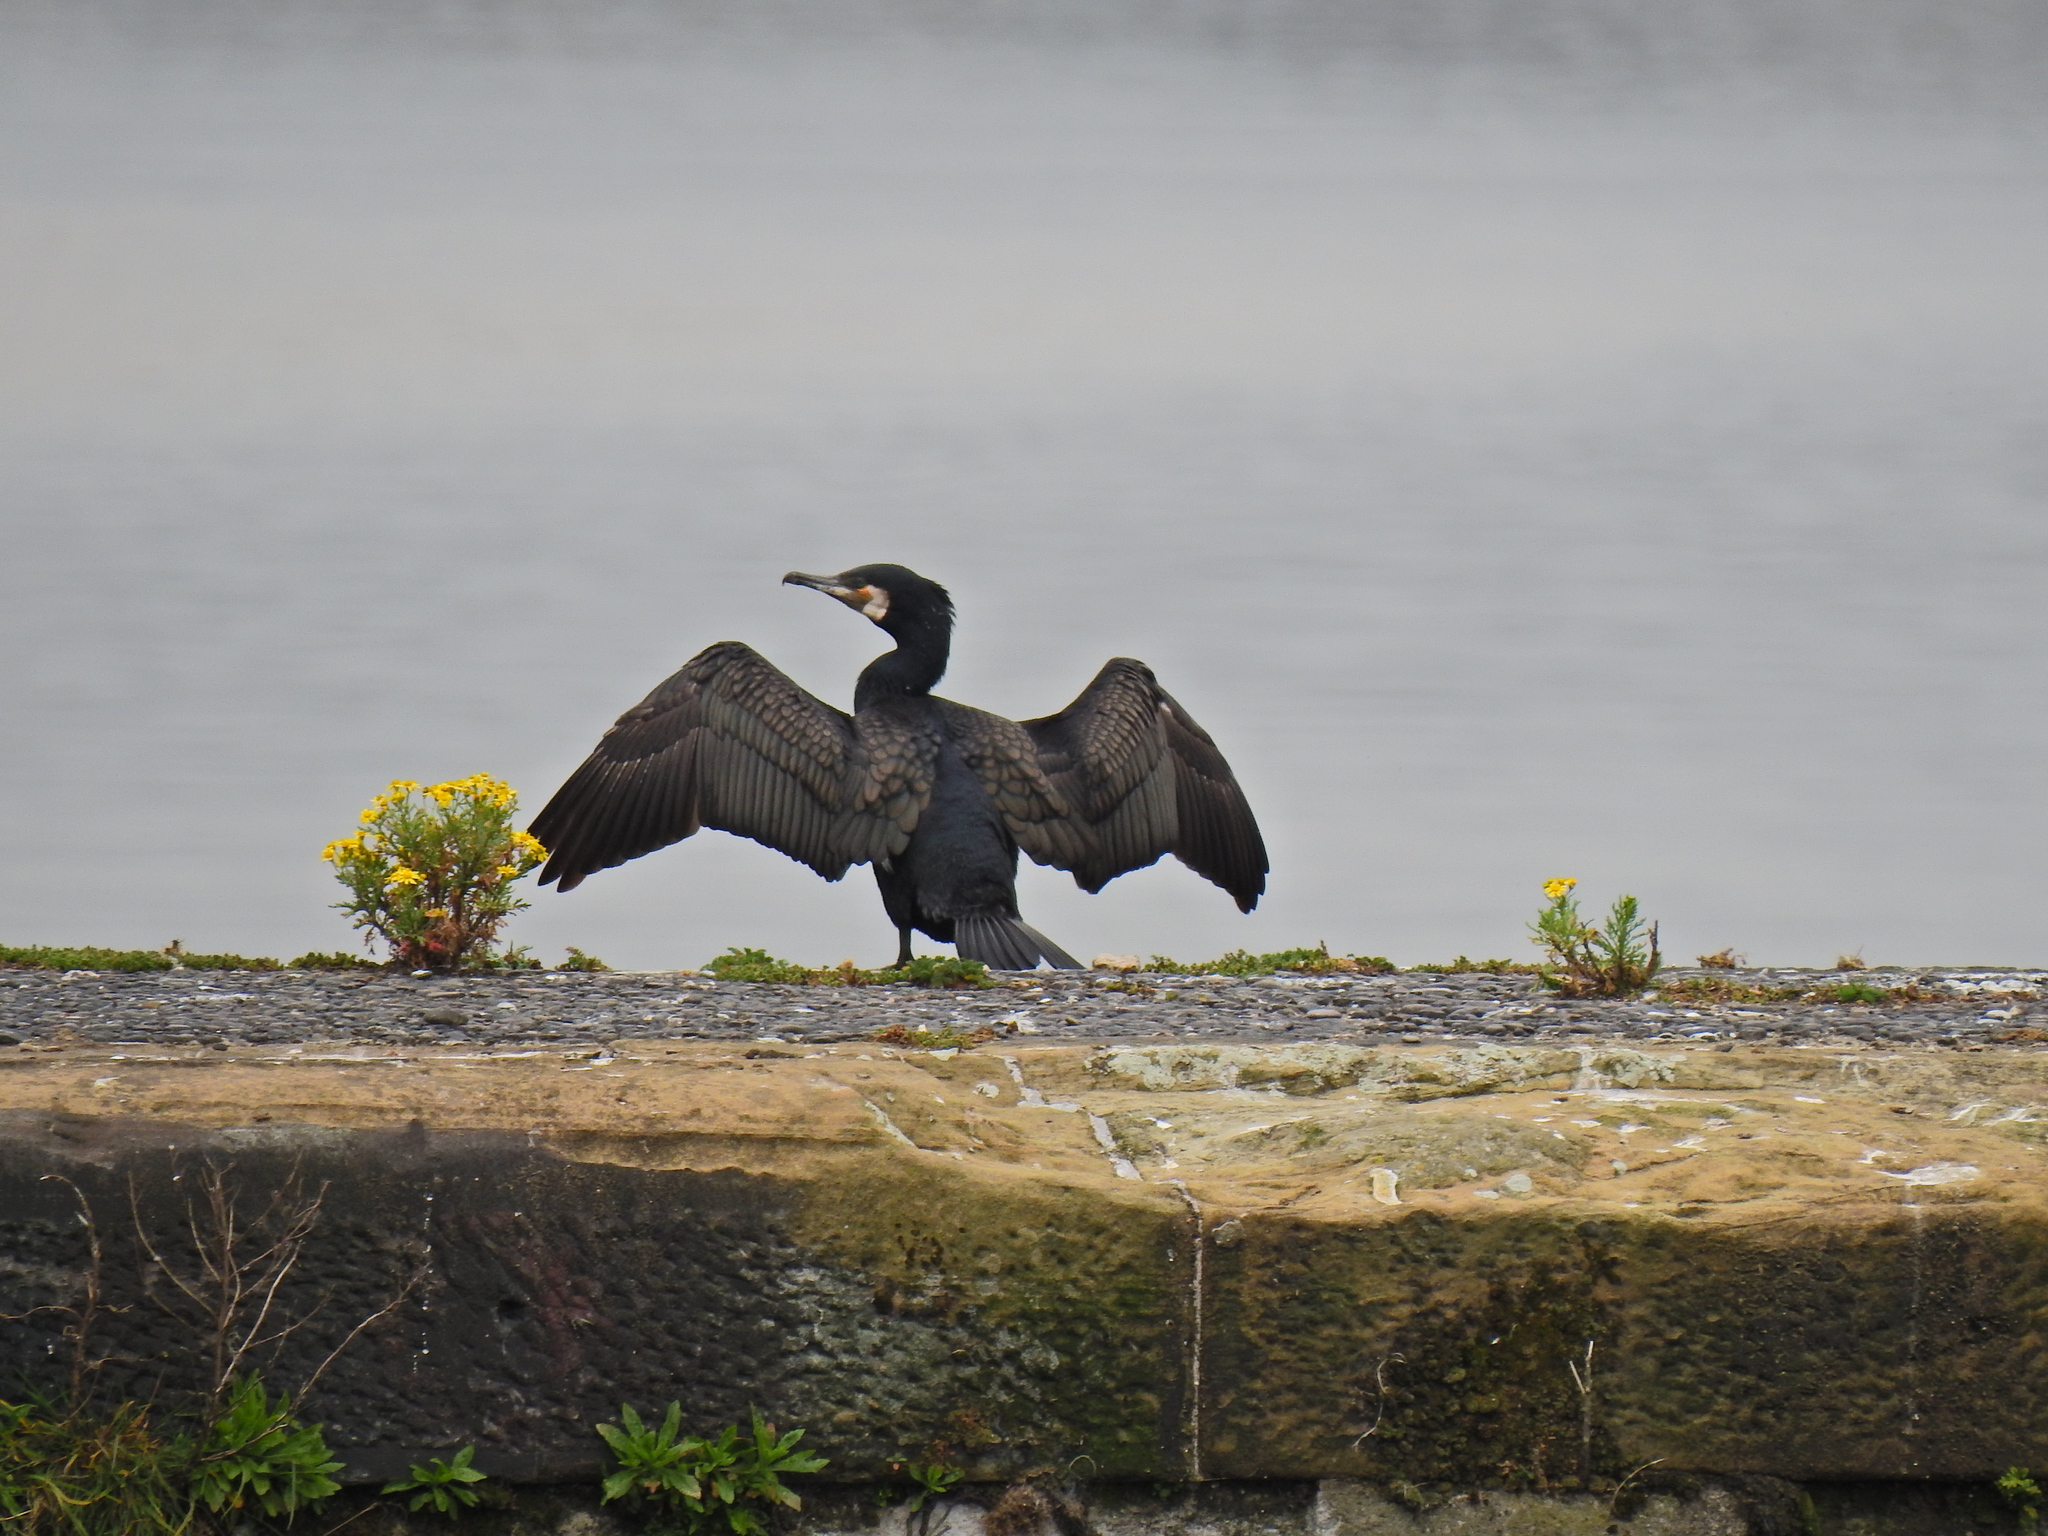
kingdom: Animalia
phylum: Chordata
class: Aves
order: Suliformes
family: Phalacrocoracidae
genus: Phalacrocorax
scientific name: Phalacrocorax carbo
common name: Great cormorant
